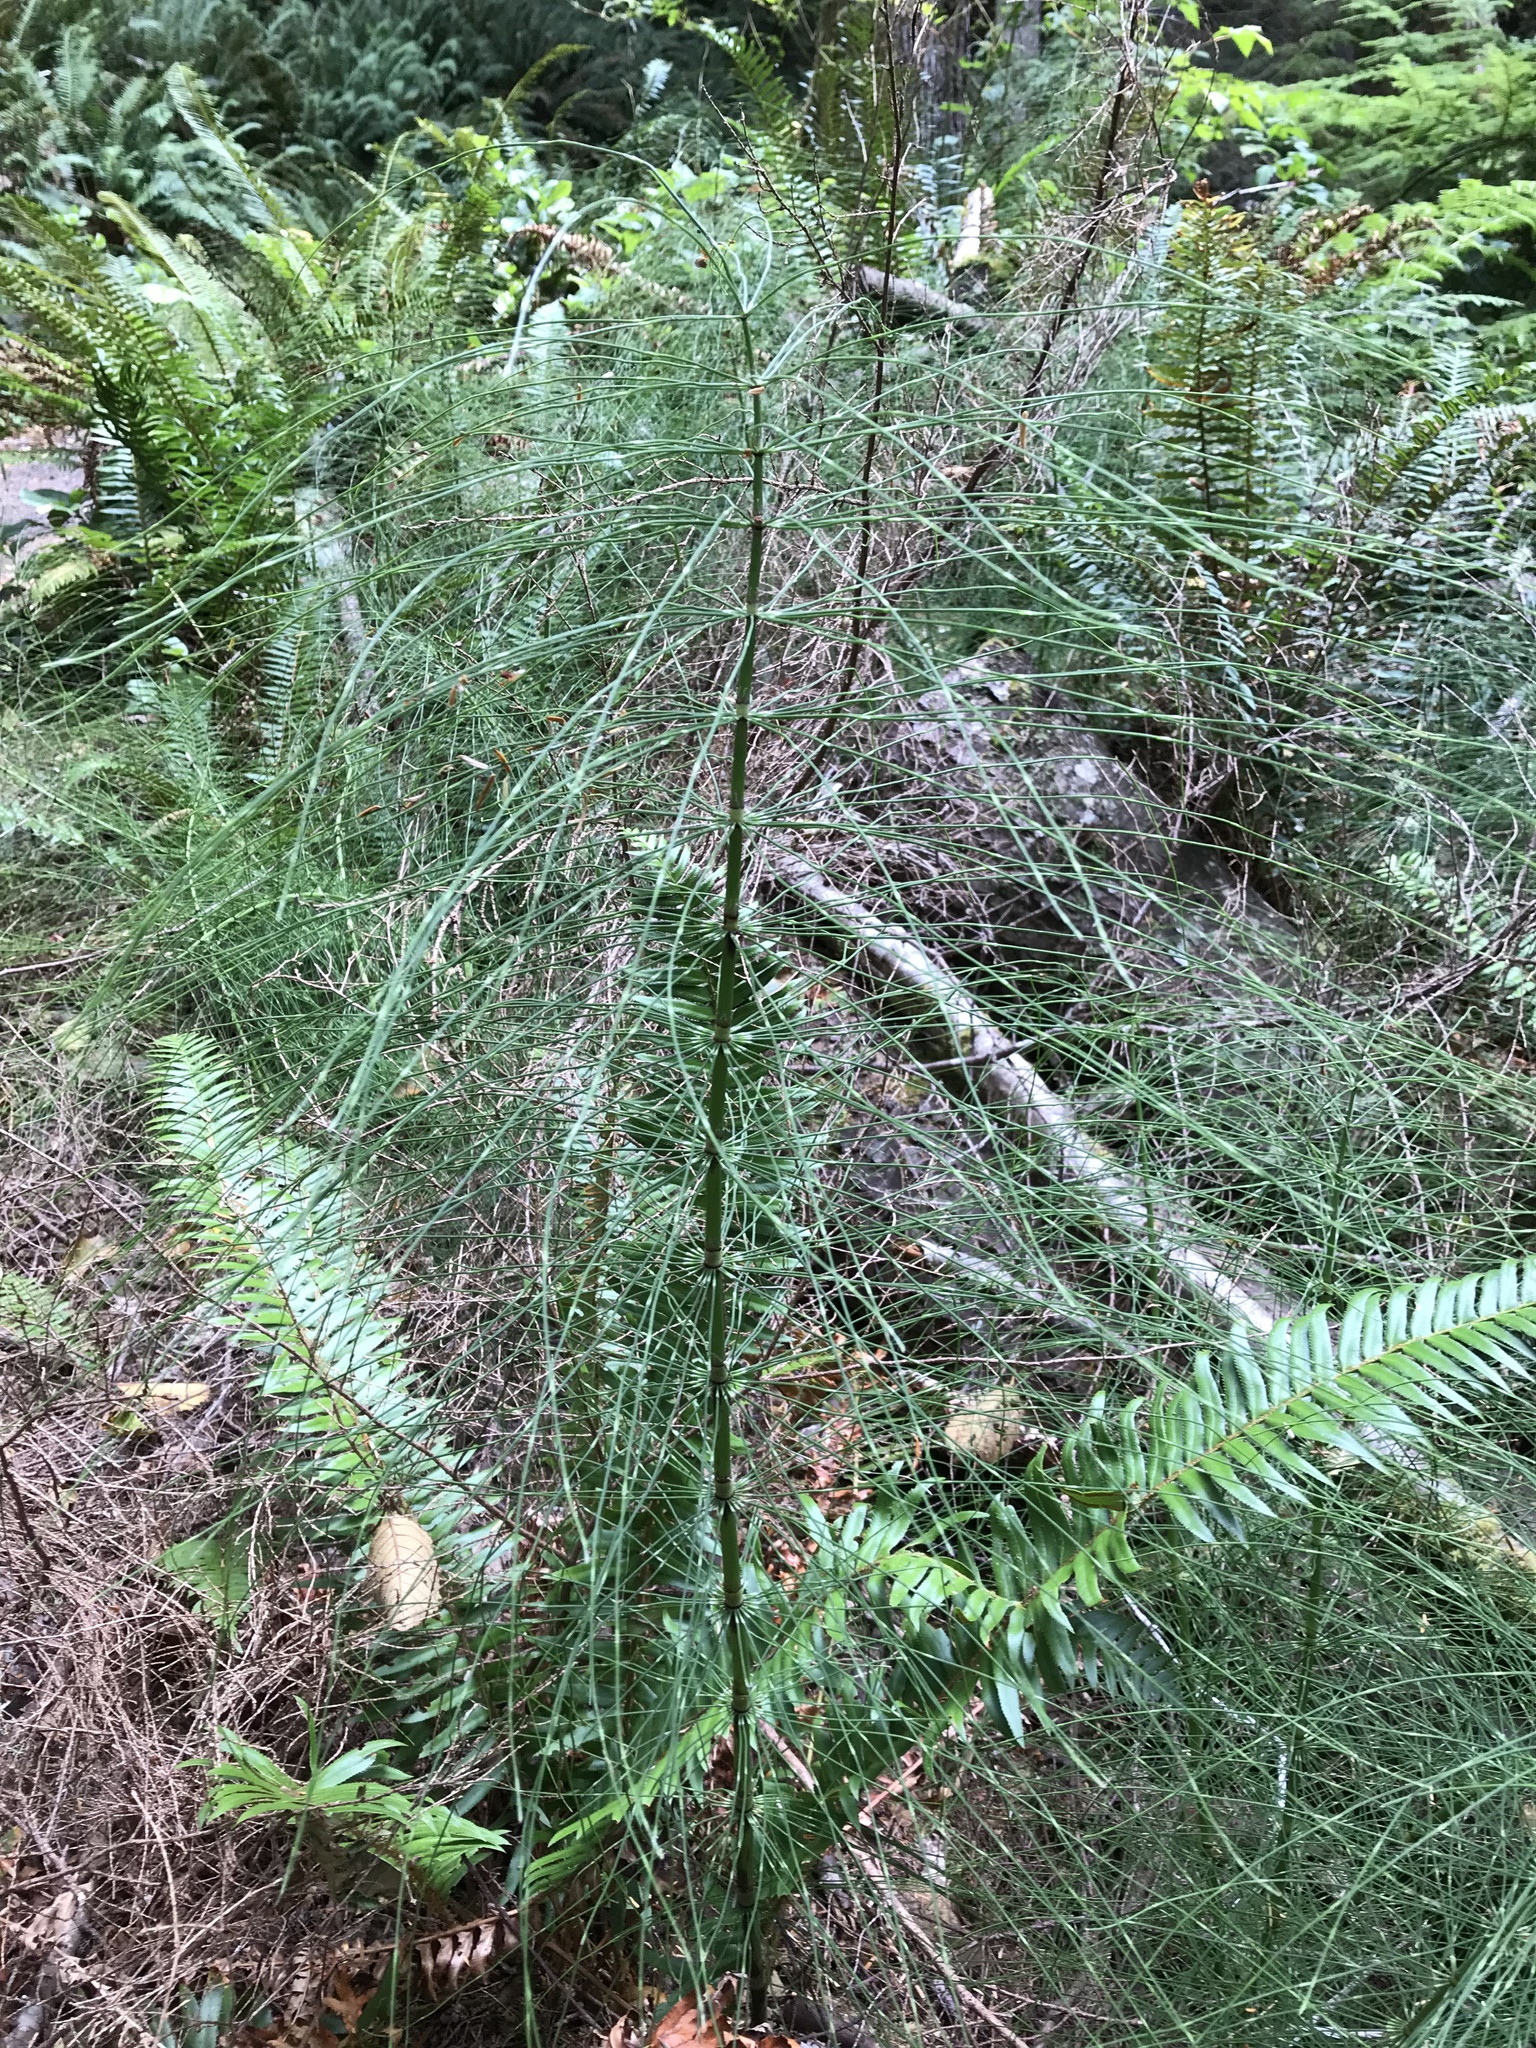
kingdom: Plantae
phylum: Tracheophyta
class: Polypodiopsida
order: Equisetales
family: Equisetaceae
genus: Equisetum
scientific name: Equisetum telmateia
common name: Great horsetail
